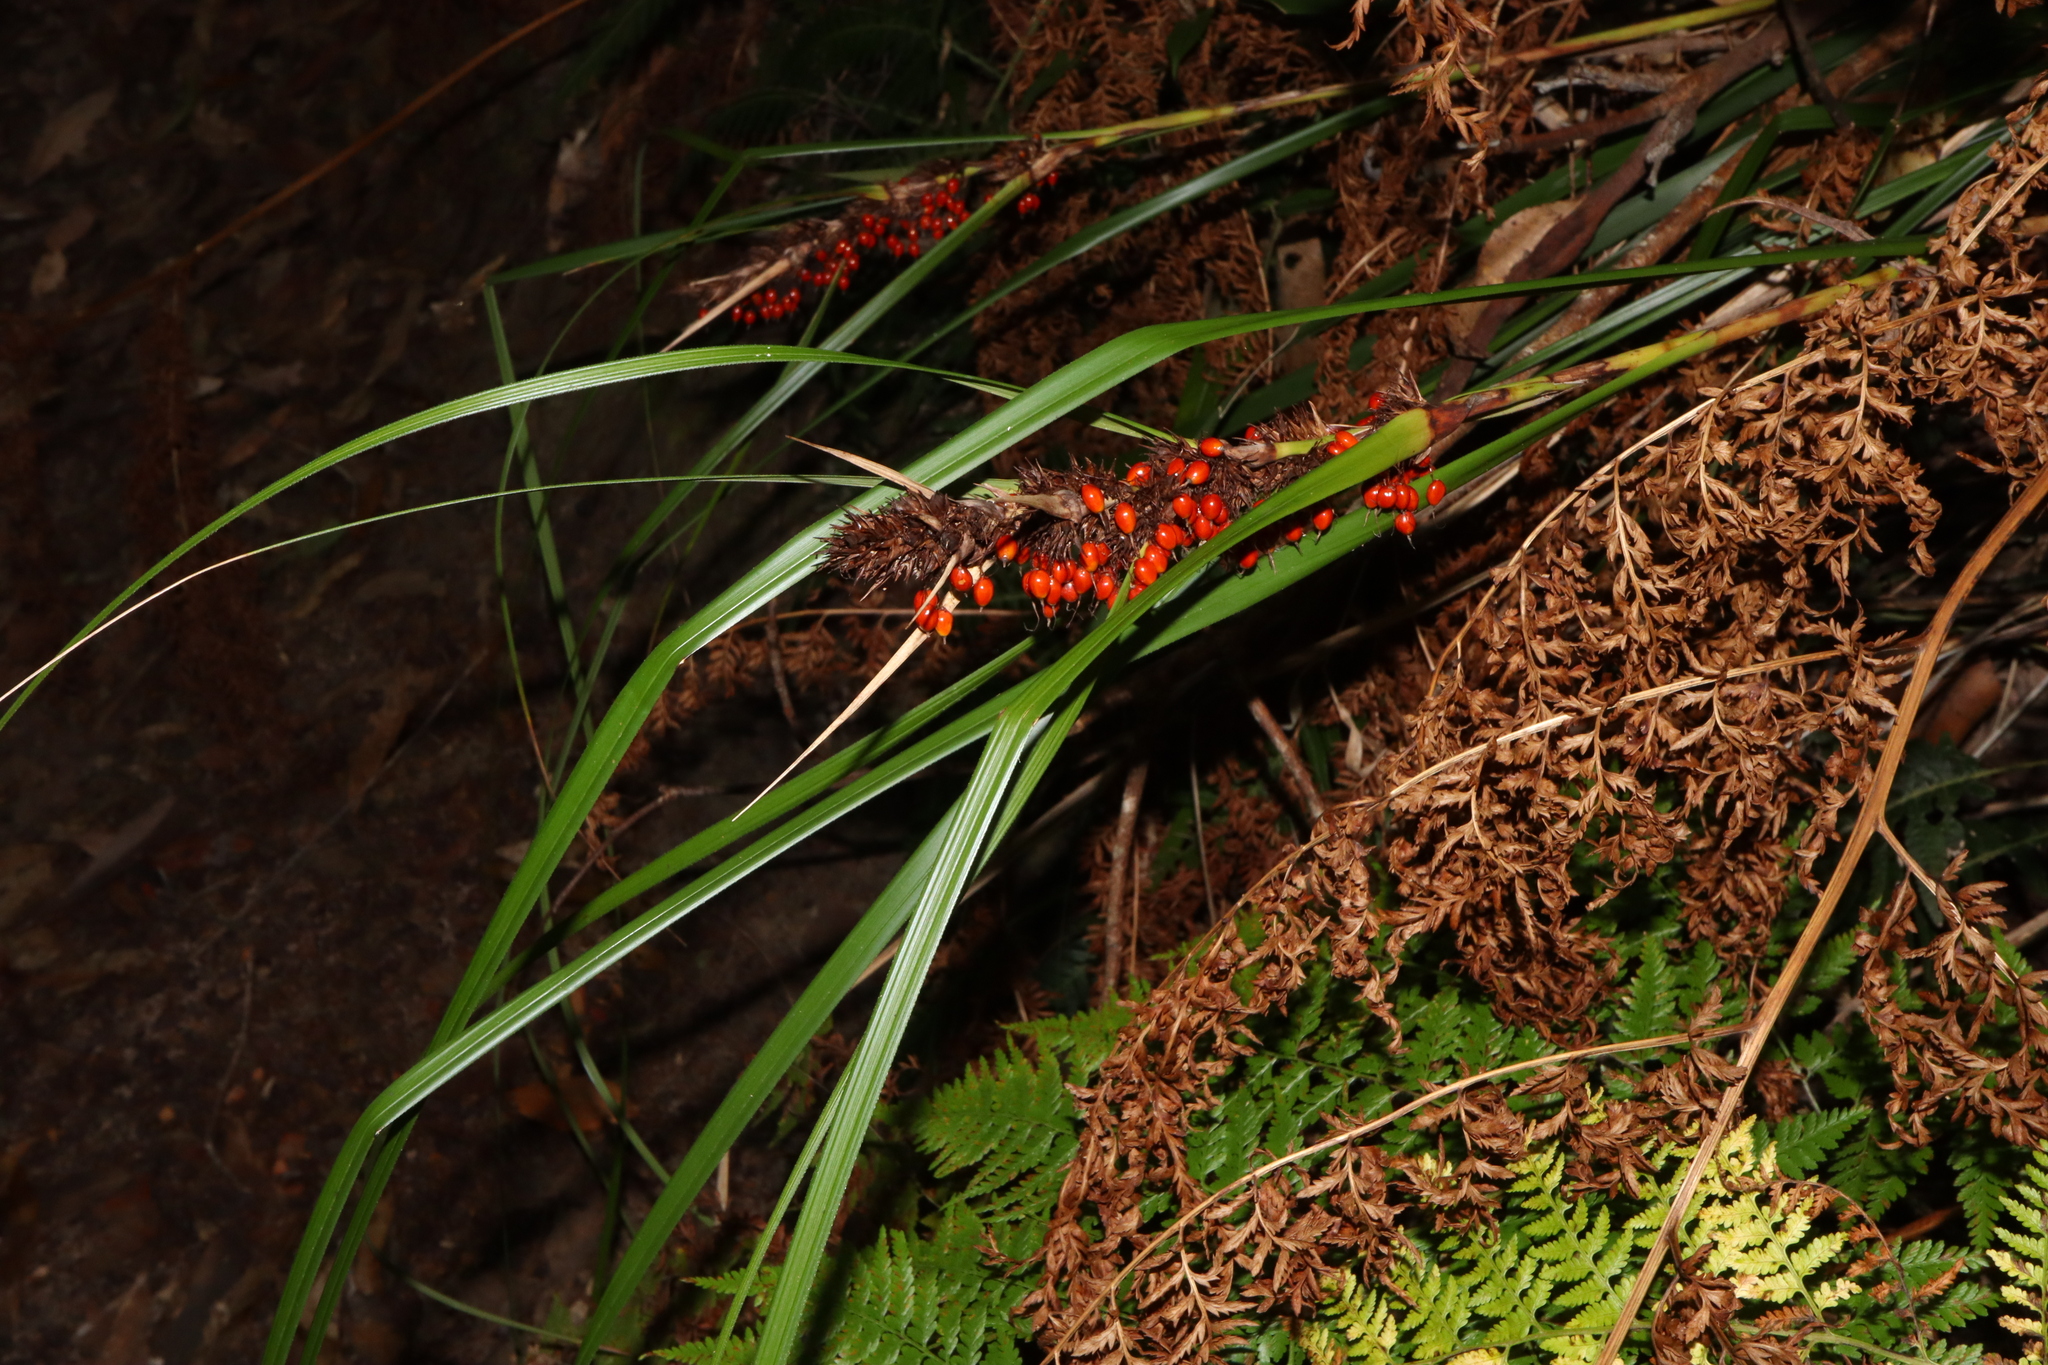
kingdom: Plantae
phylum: Tracheophyta
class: Liliopsida
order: Poales
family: Cyperaceae
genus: Gahnia
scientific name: Gahnia aspera
